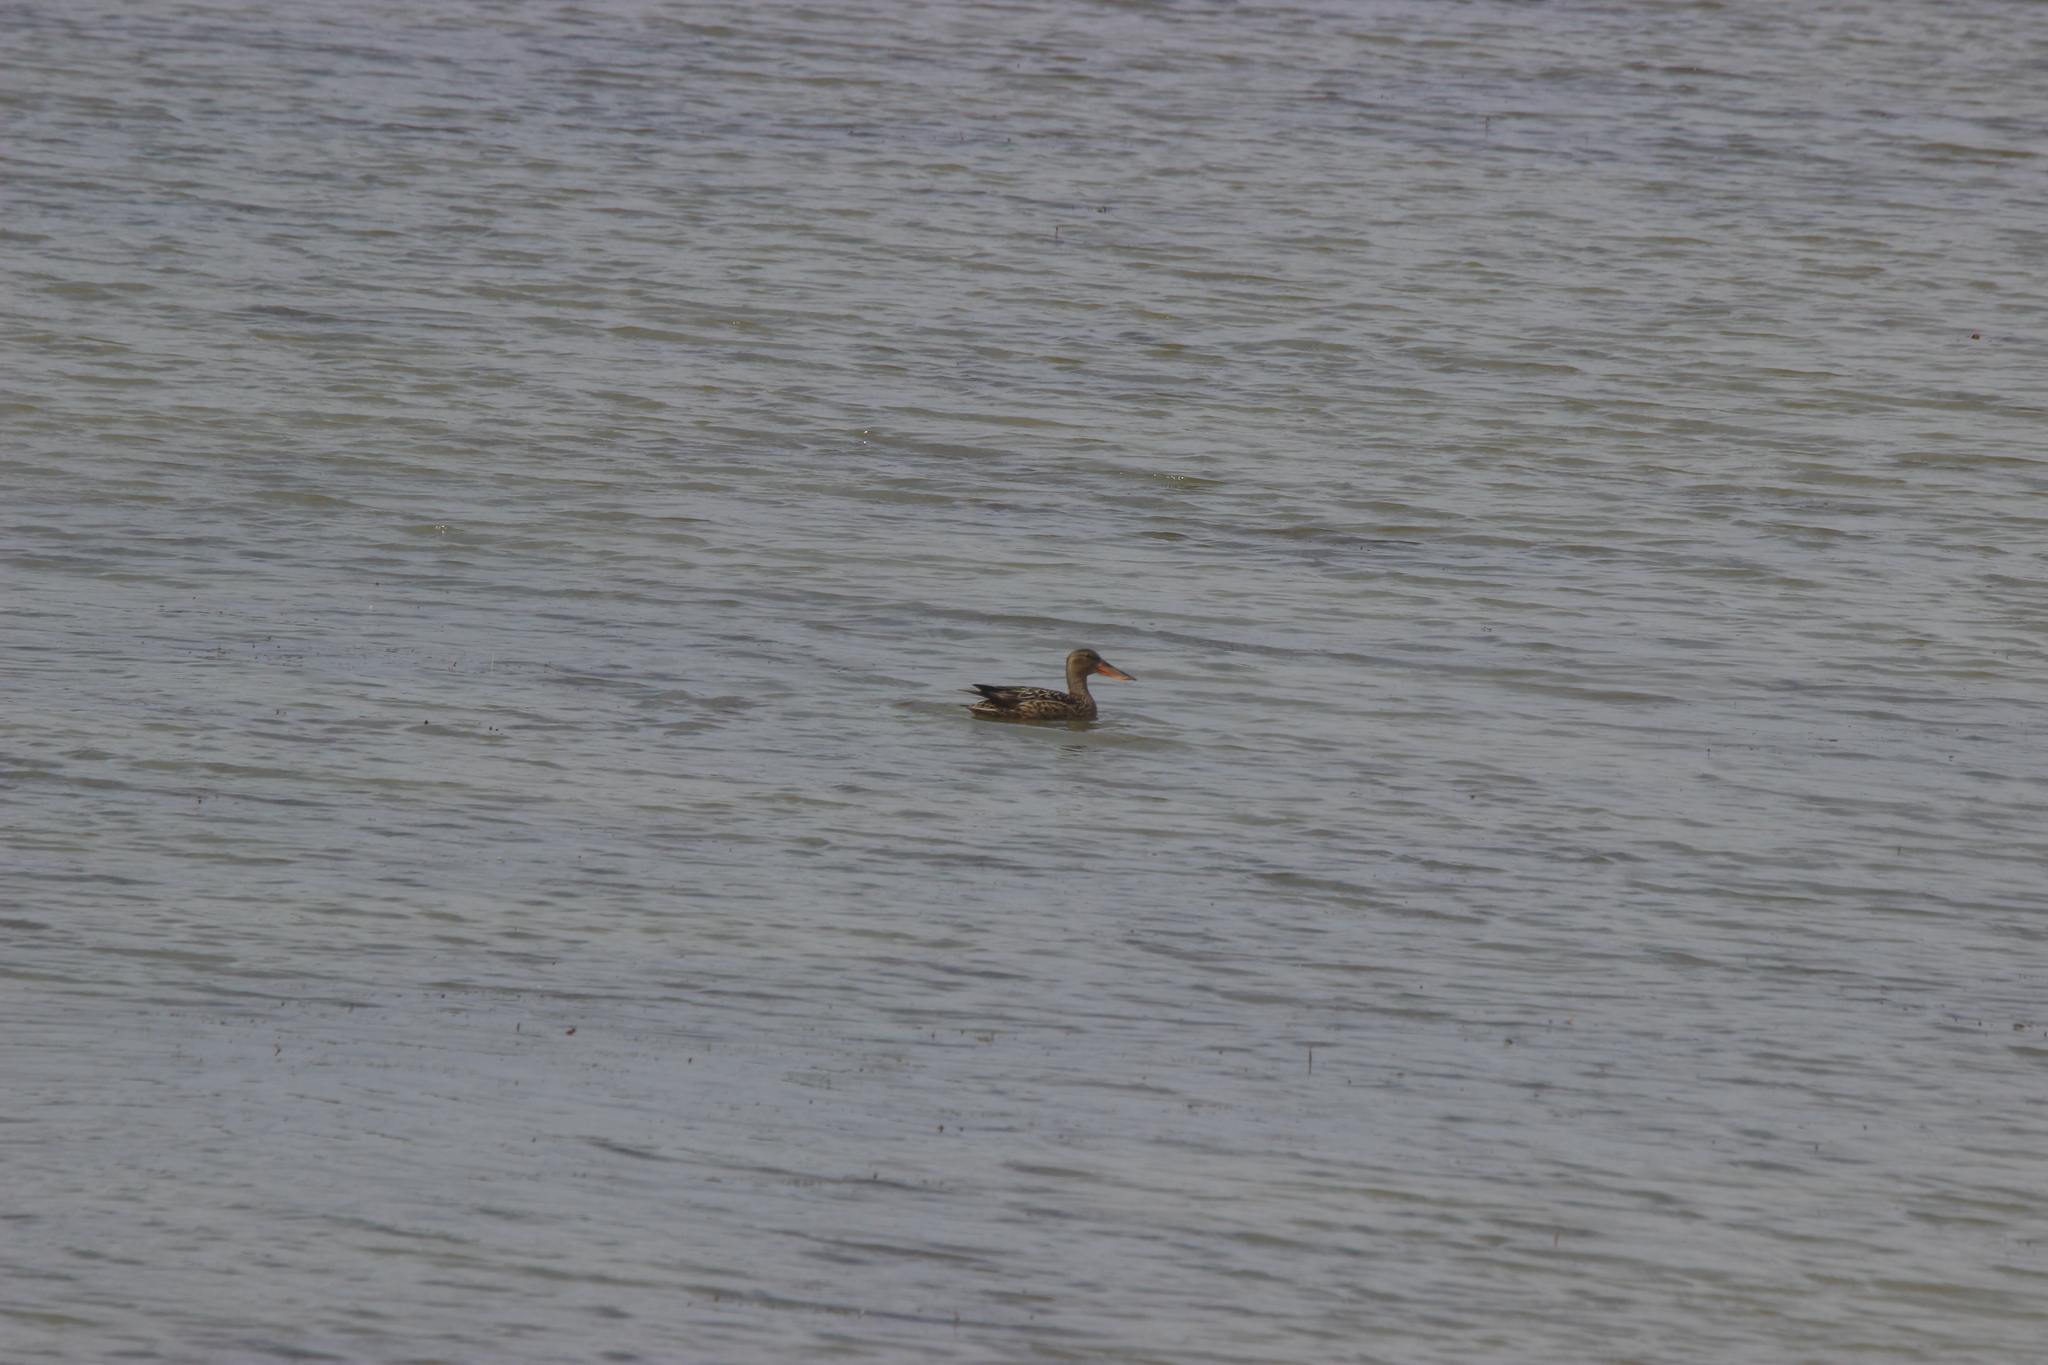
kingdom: Animalia
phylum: Chordata
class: Aves
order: Anseriformes
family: Anatidae
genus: Spatula
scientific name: Spatula clypeata
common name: Northern shoveler
